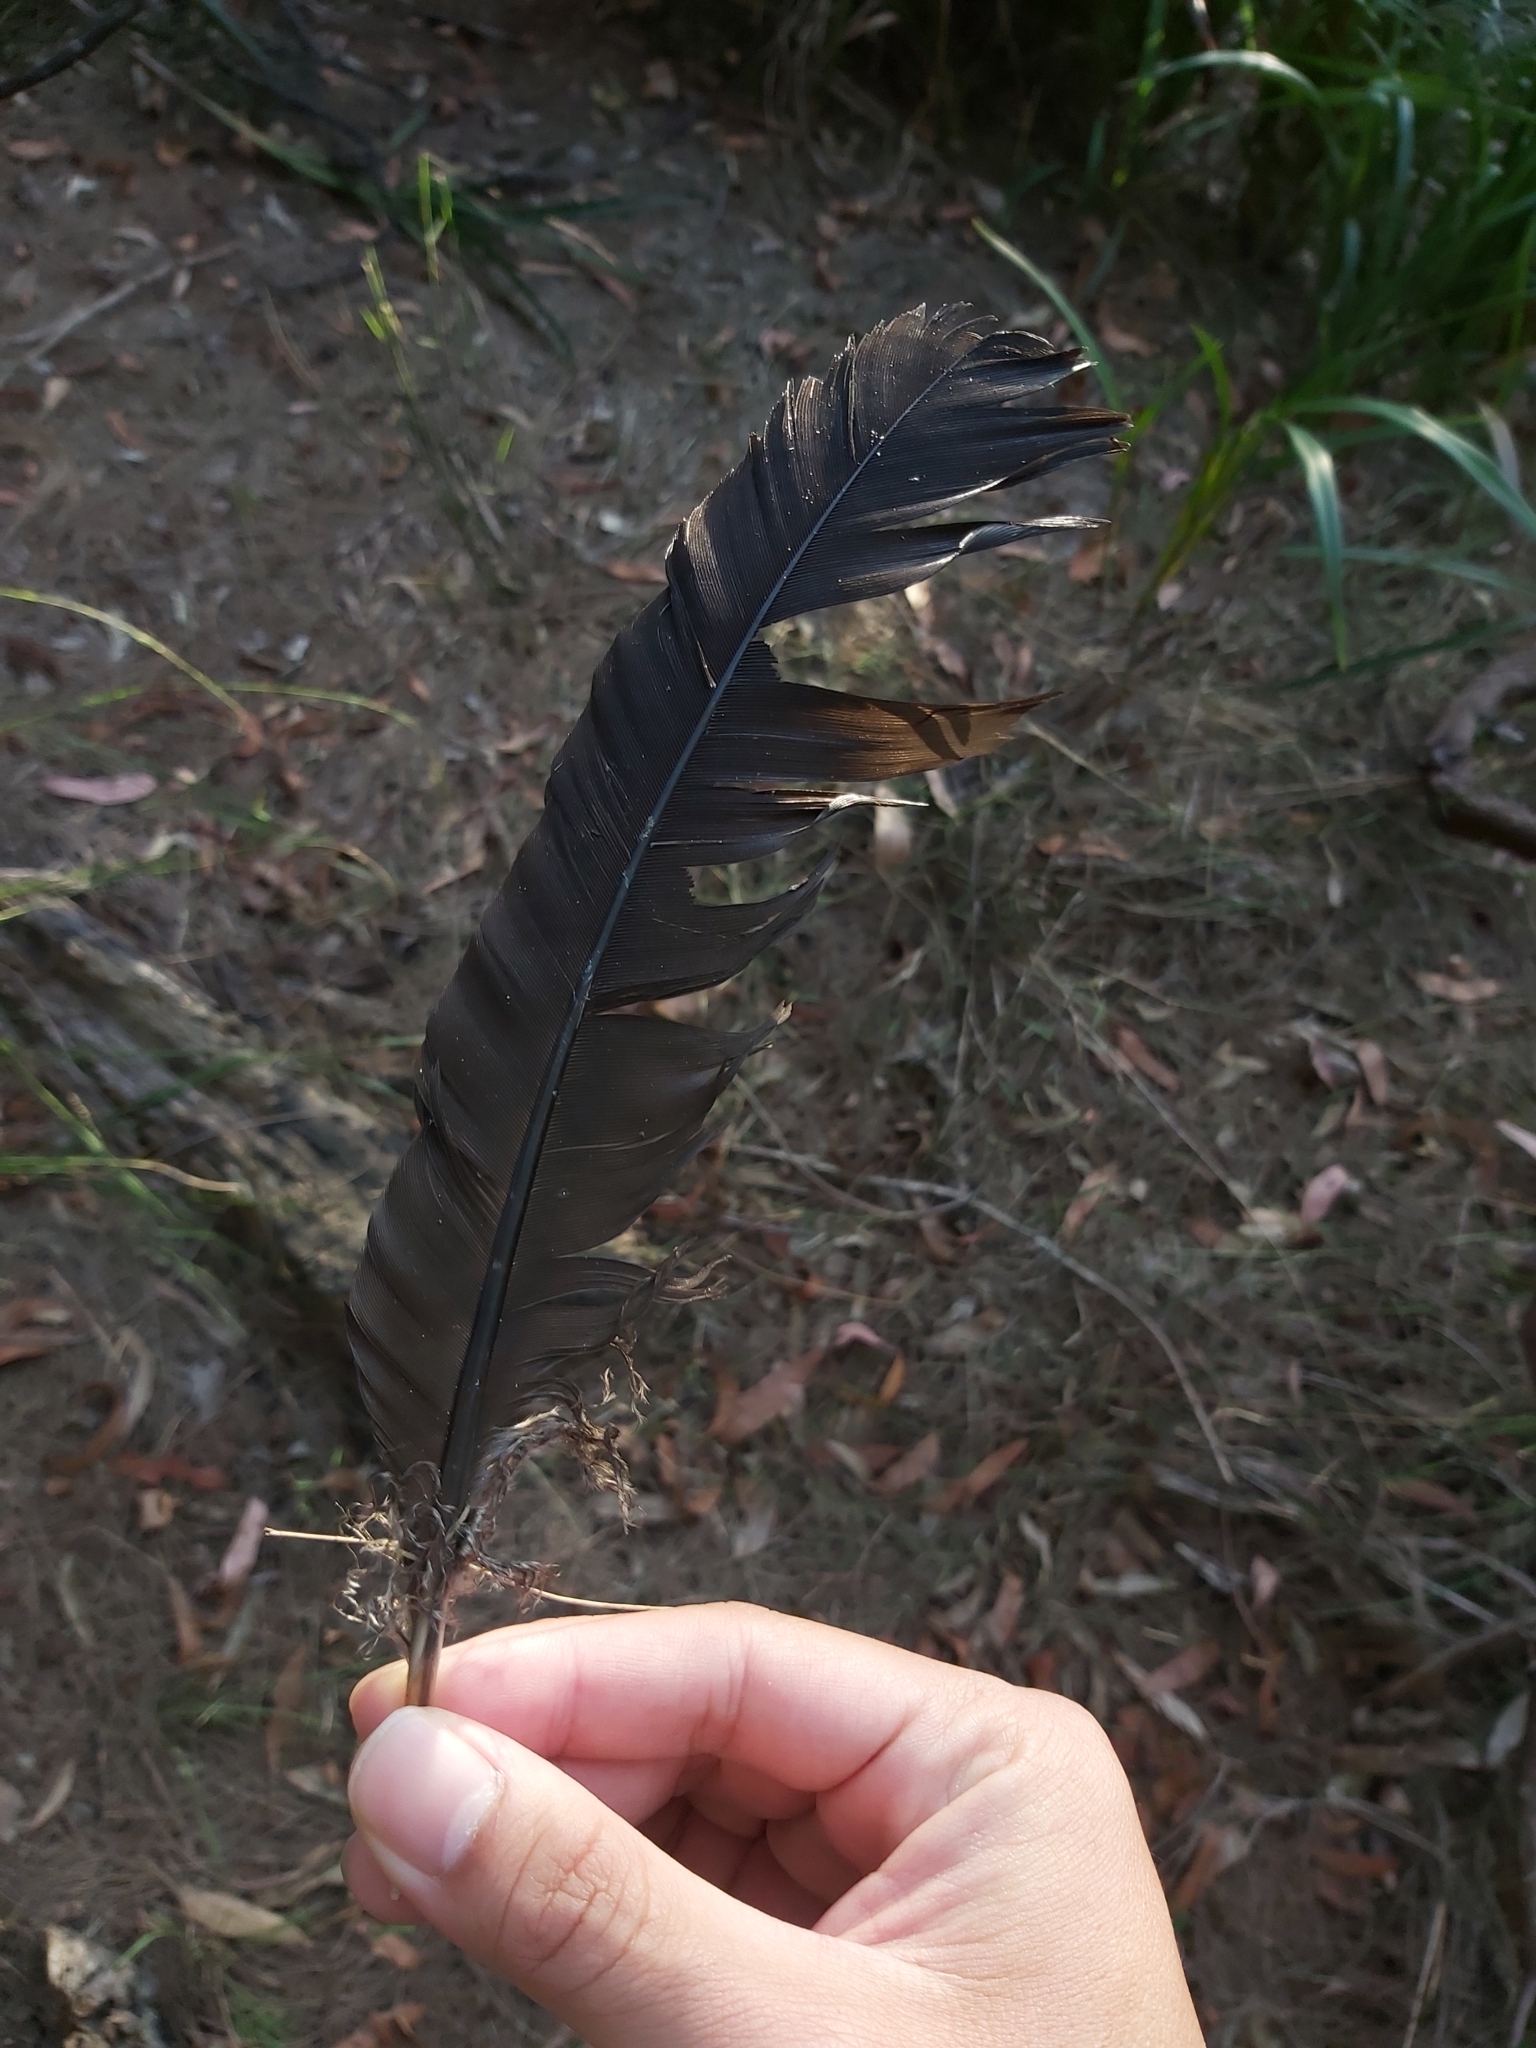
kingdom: Animalia
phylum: Chordata
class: Aves
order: Galliformes
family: Megapodiidae
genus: Alectura
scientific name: Alectura lathami
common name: Australian brushturkey
